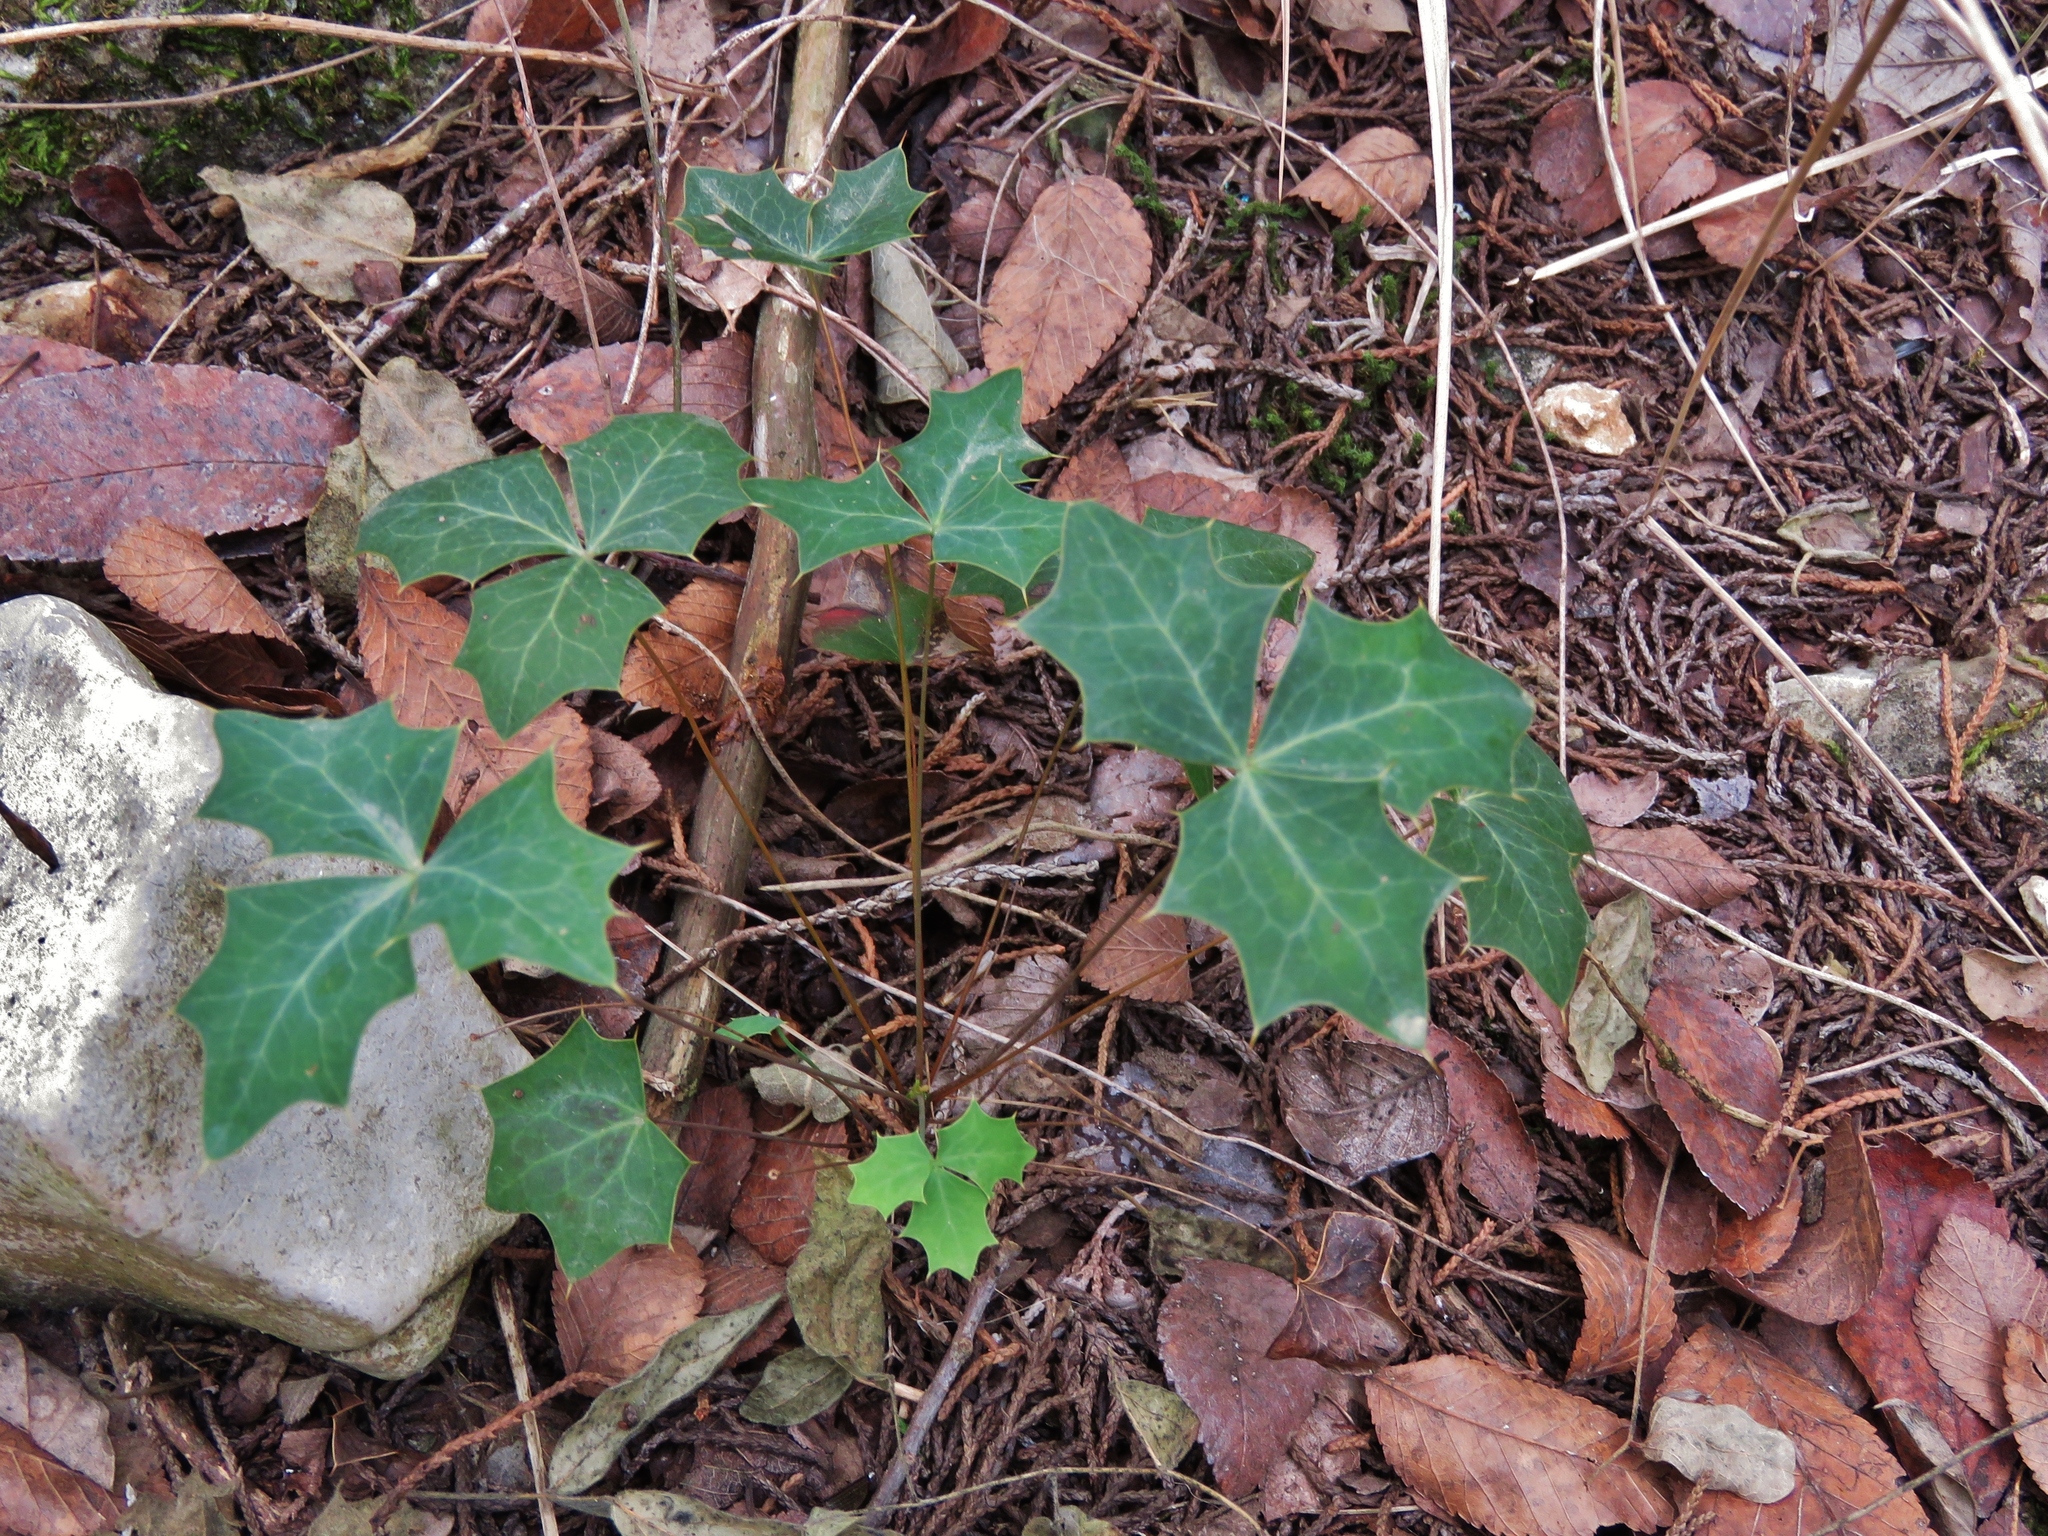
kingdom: Plantae
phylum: Tracheophyta
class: Magnoliopsida
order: Ranunculales
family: Berberidaceae
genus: Alloberberis
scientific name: Alloberberis trifoliolata
